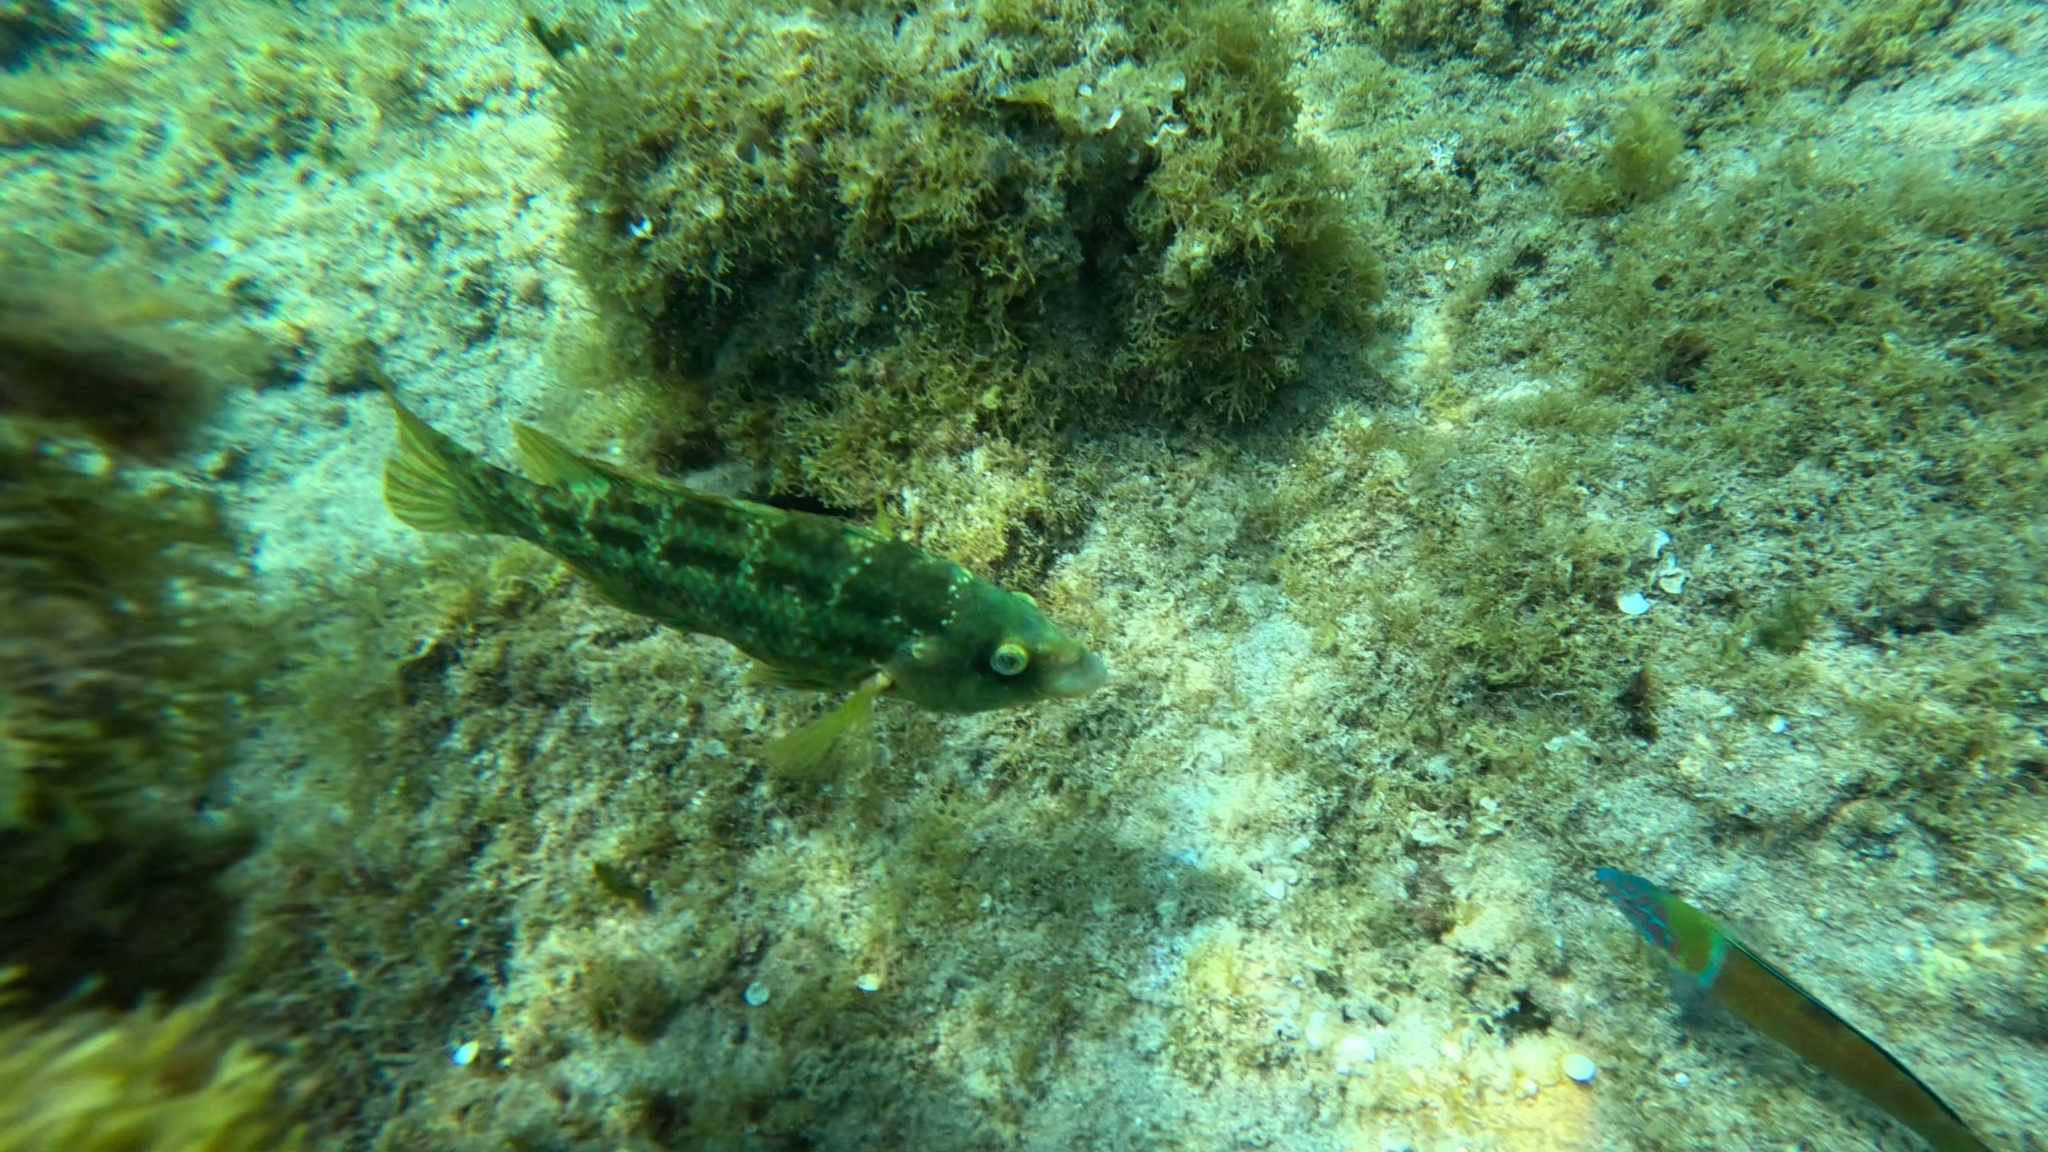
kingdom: Animalia
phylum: Chordata
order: Perciformes
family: Labridae
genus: Symphodus
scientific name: Symphodus trutta
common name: Emerald wrasse
